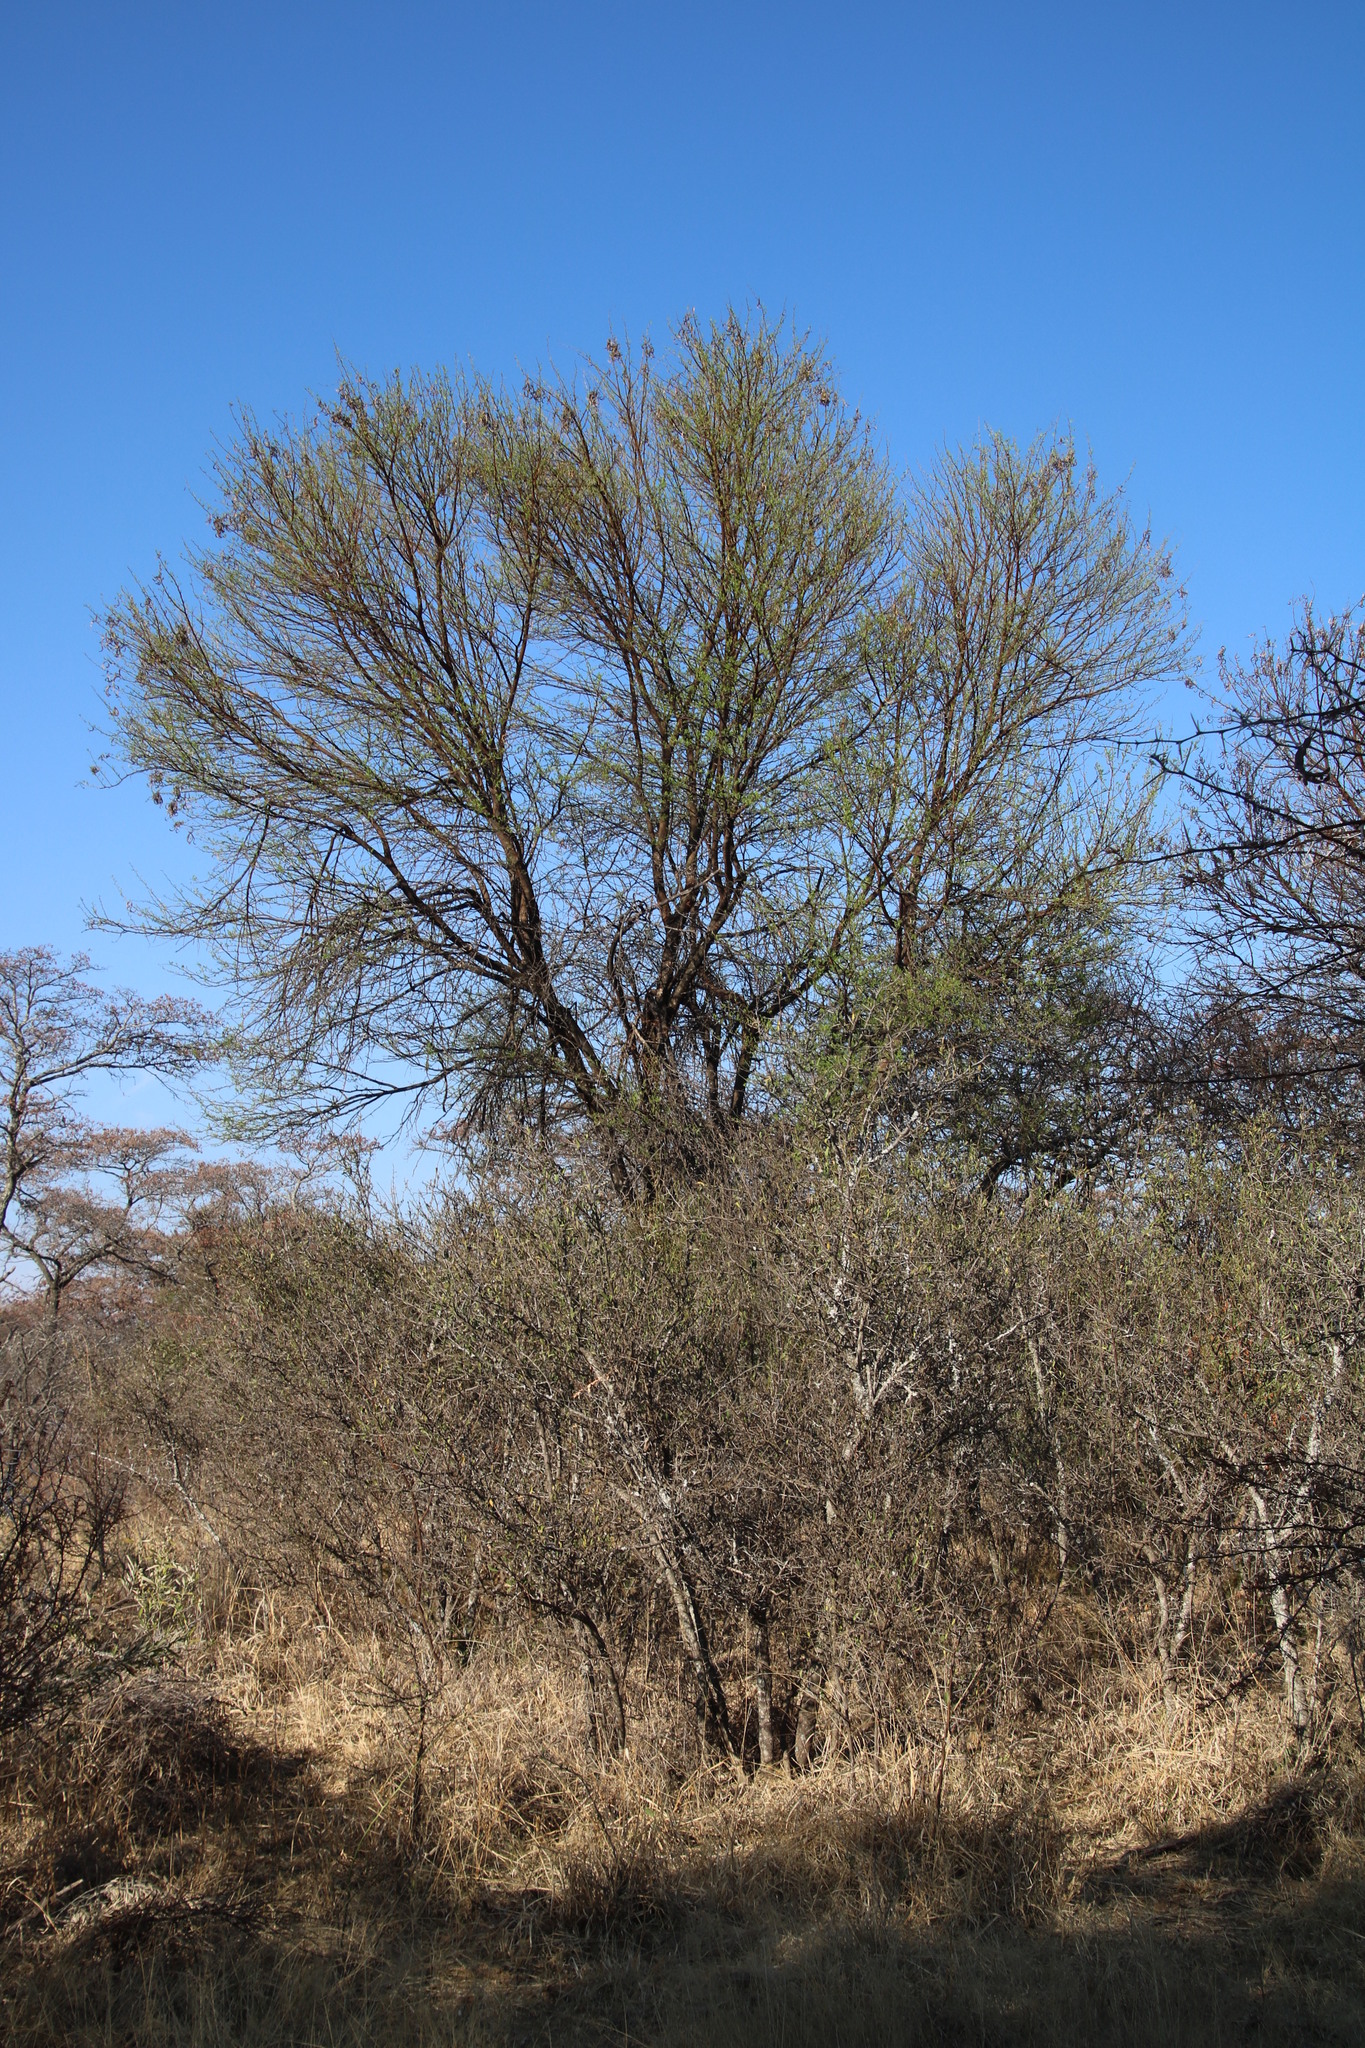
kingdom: Plantae
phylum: Tracheophyta
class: Magnoliopsida
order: Fabales
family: Fabaceae
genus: Vachellia
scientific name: Vachellia karroo
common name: Sweet thorn
